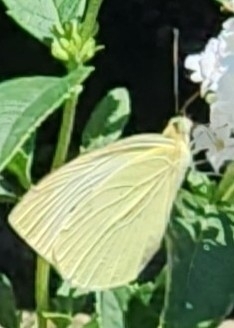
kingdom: Animalia
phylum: Arthropoda
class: Insecta
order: Lepidoptera
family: Pieridae
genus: Pieris
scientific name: Pieris rapae
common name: Small white
